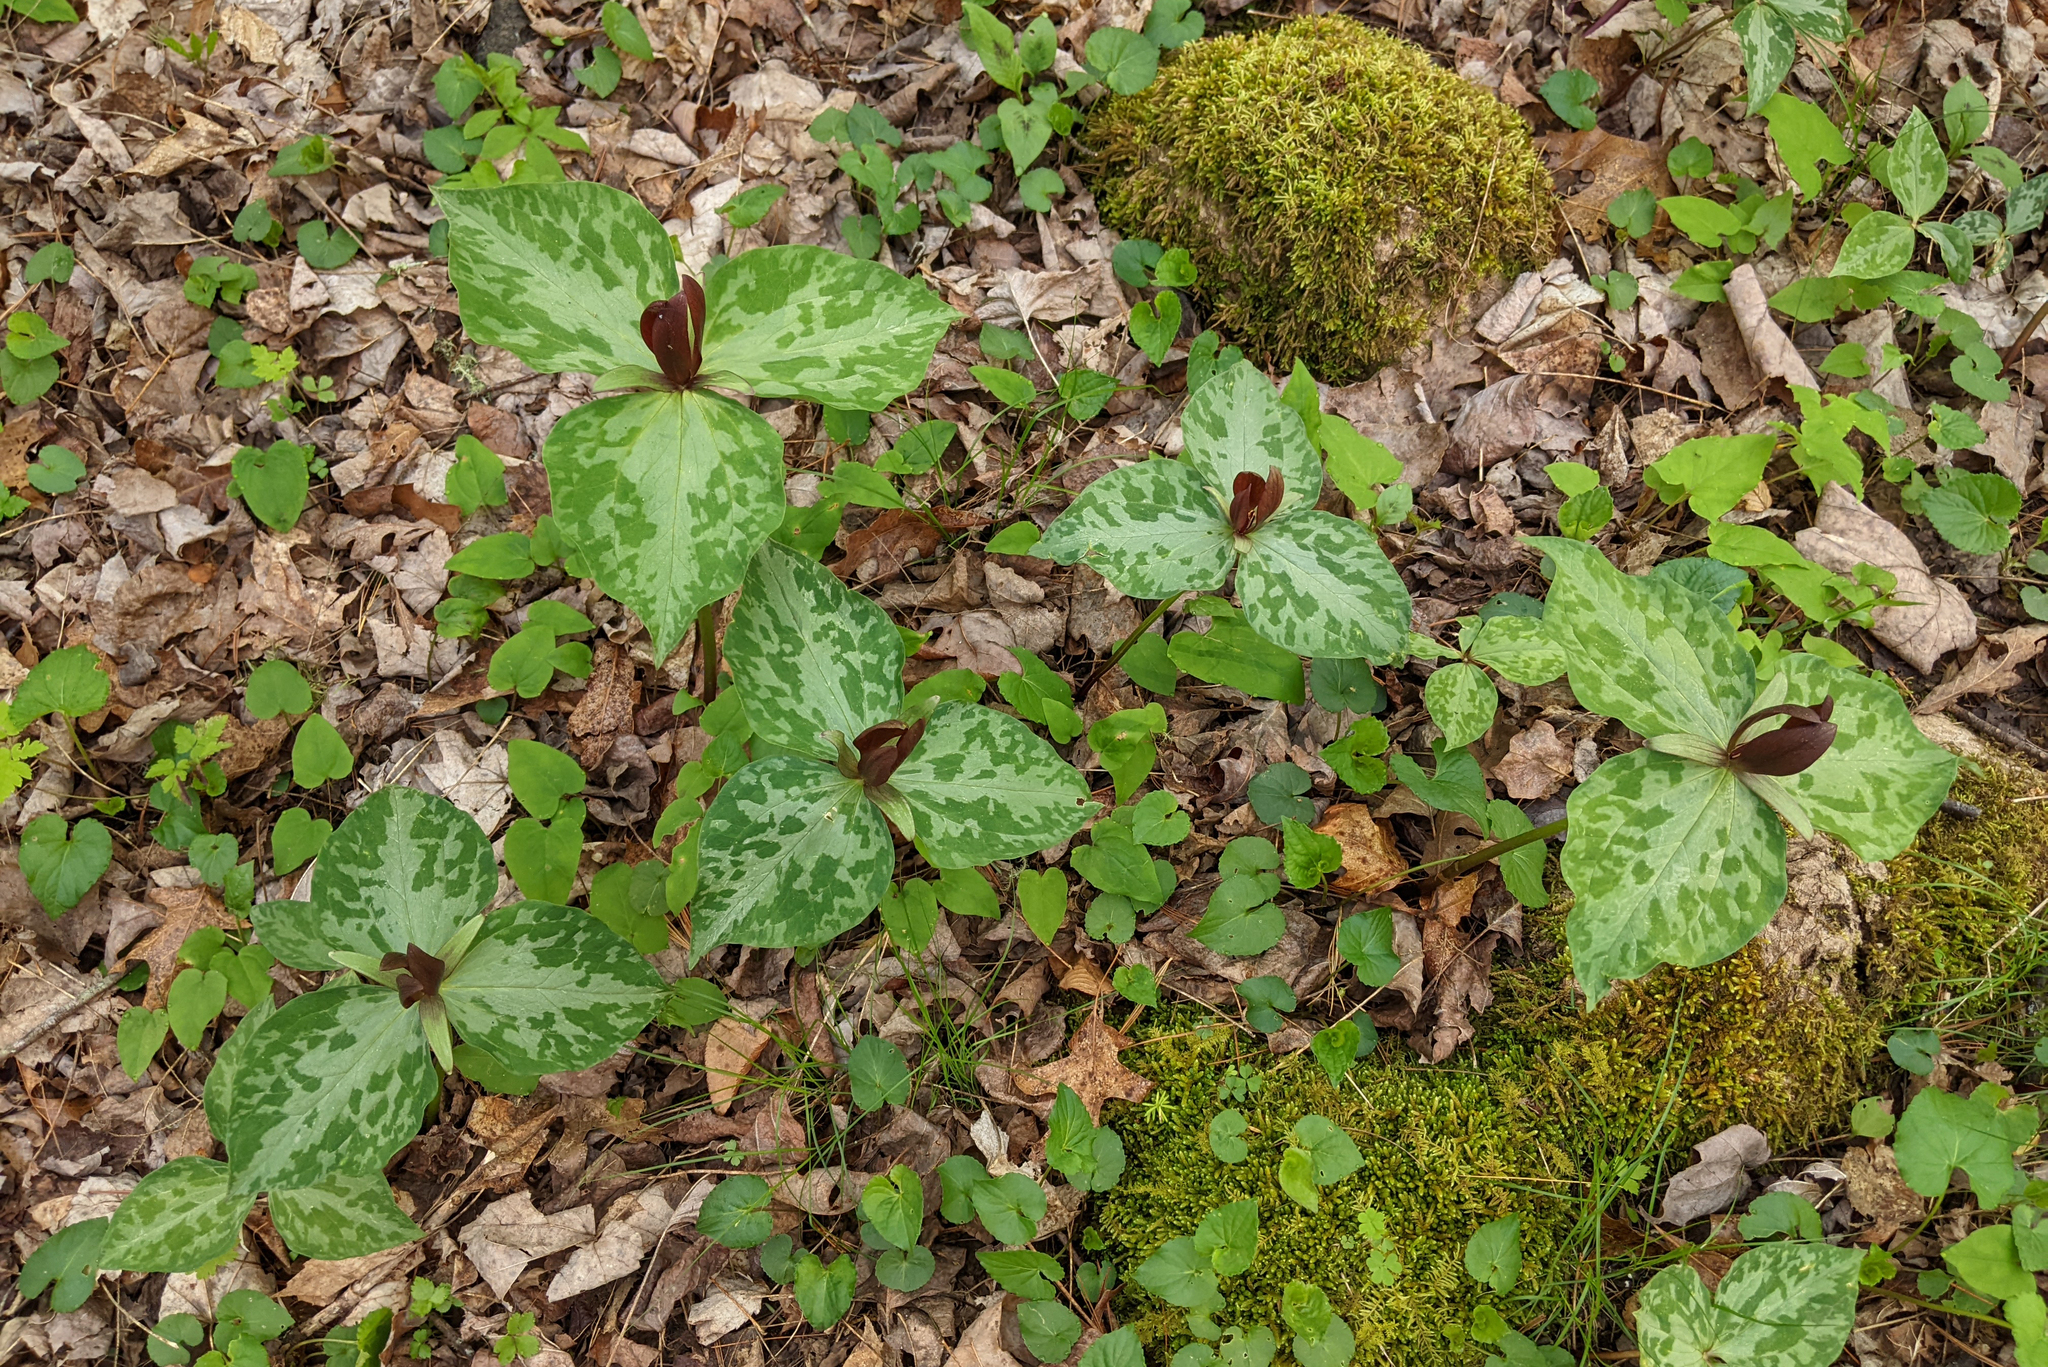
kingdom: Plantae
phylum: Tracheophyta
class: Liliopsida
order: Liliales
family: Melanthiaceae
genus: Trillium
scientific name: Trillium cuneatum
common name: Cuneate trillium
